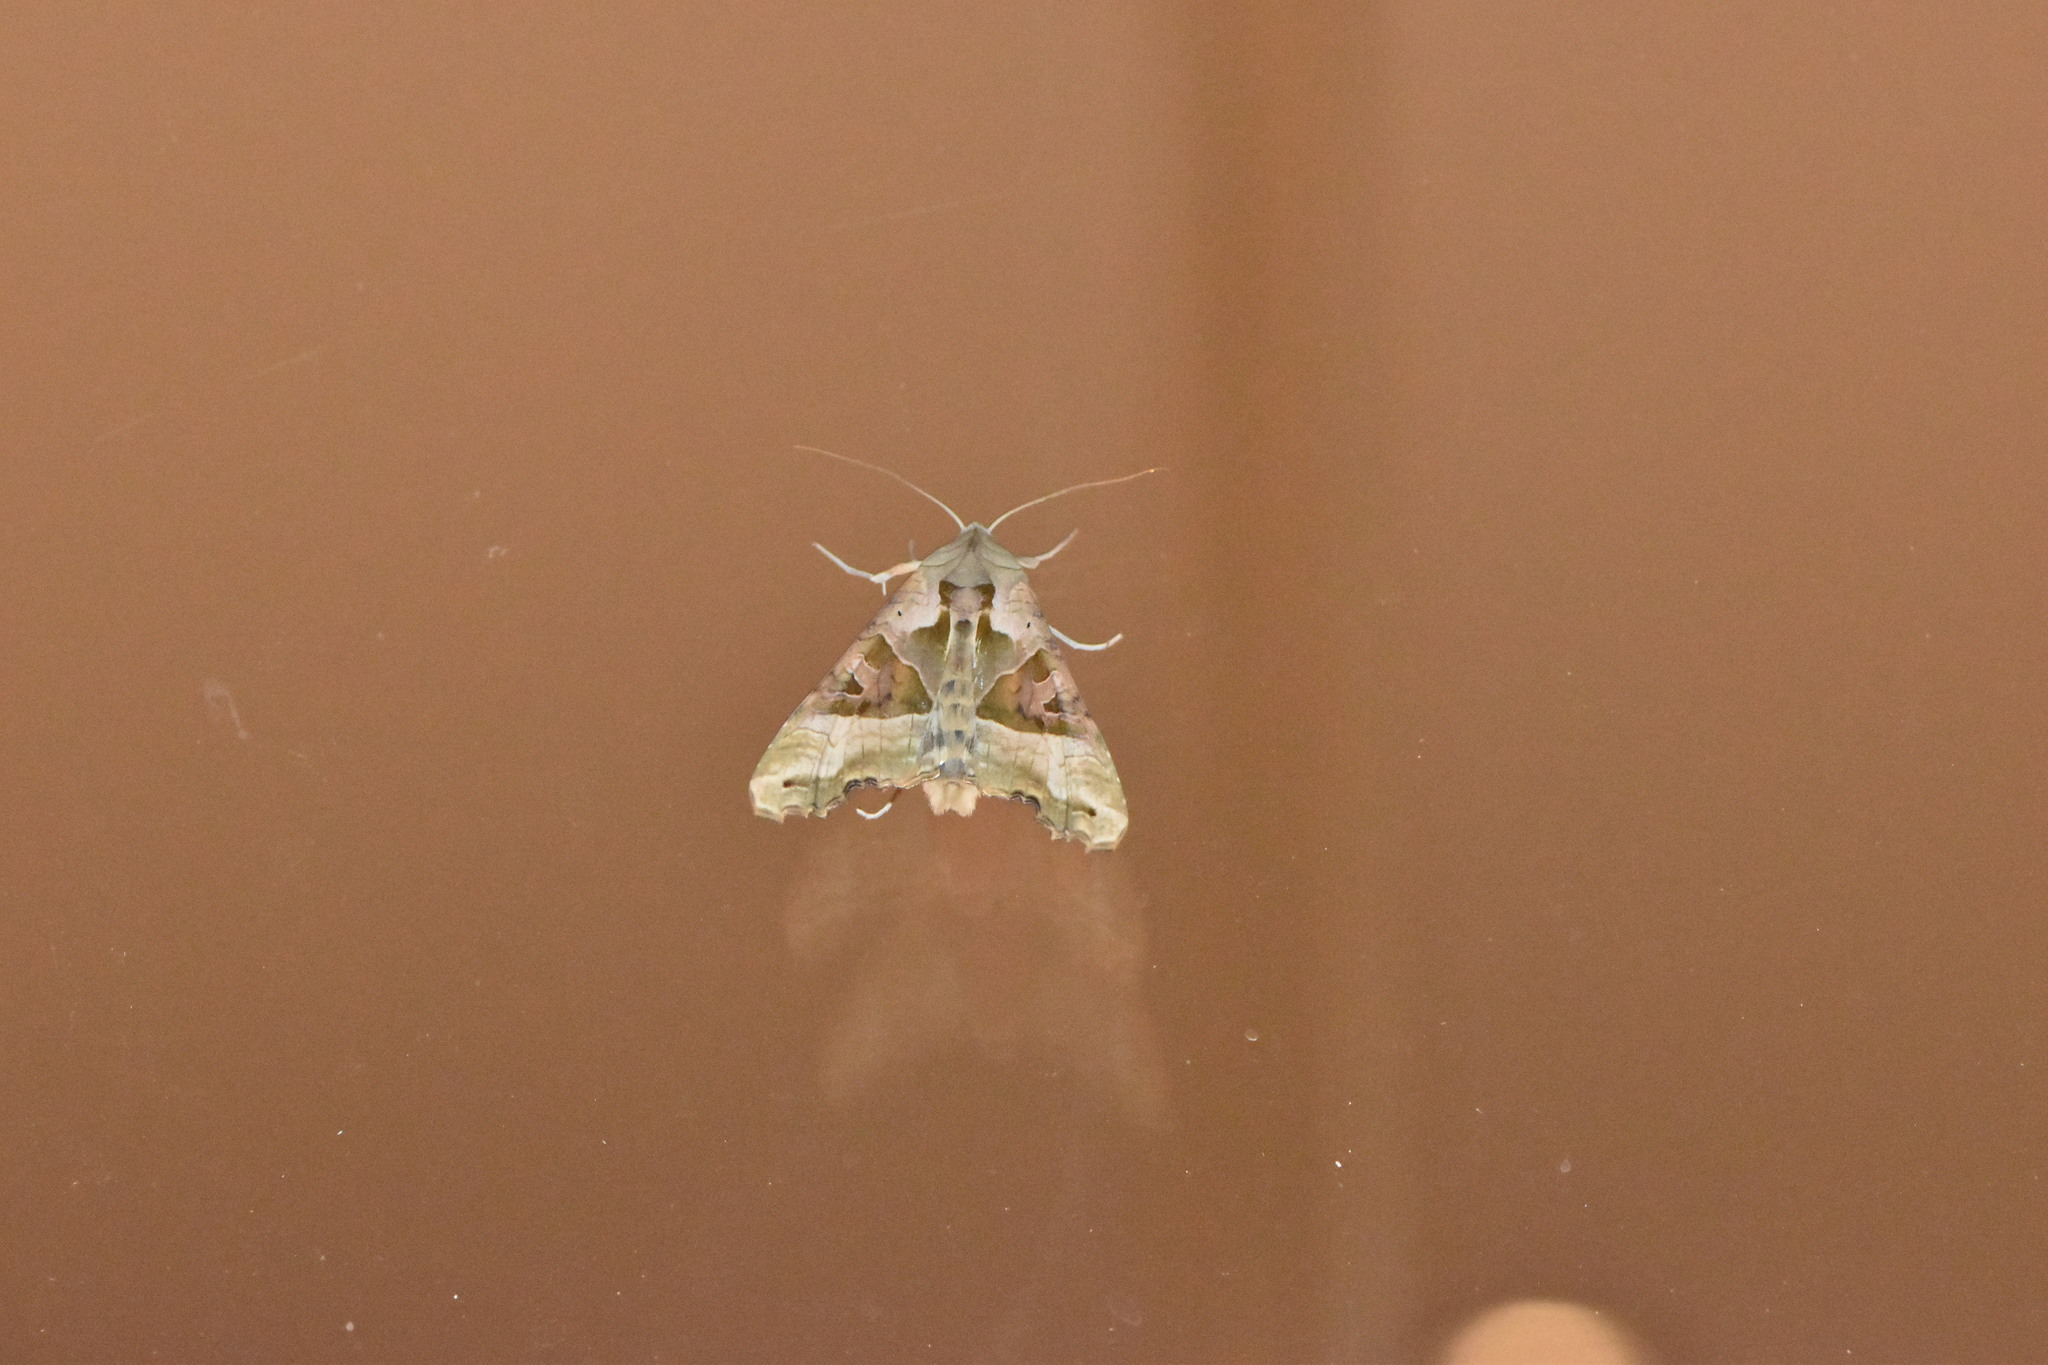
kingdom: Animalia
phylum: Arthropoda
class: Insecta
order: Lepidoptera
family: Noctuidae
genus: Phlogophora
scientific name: Phlogophora meticulosa
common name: Angle shades
